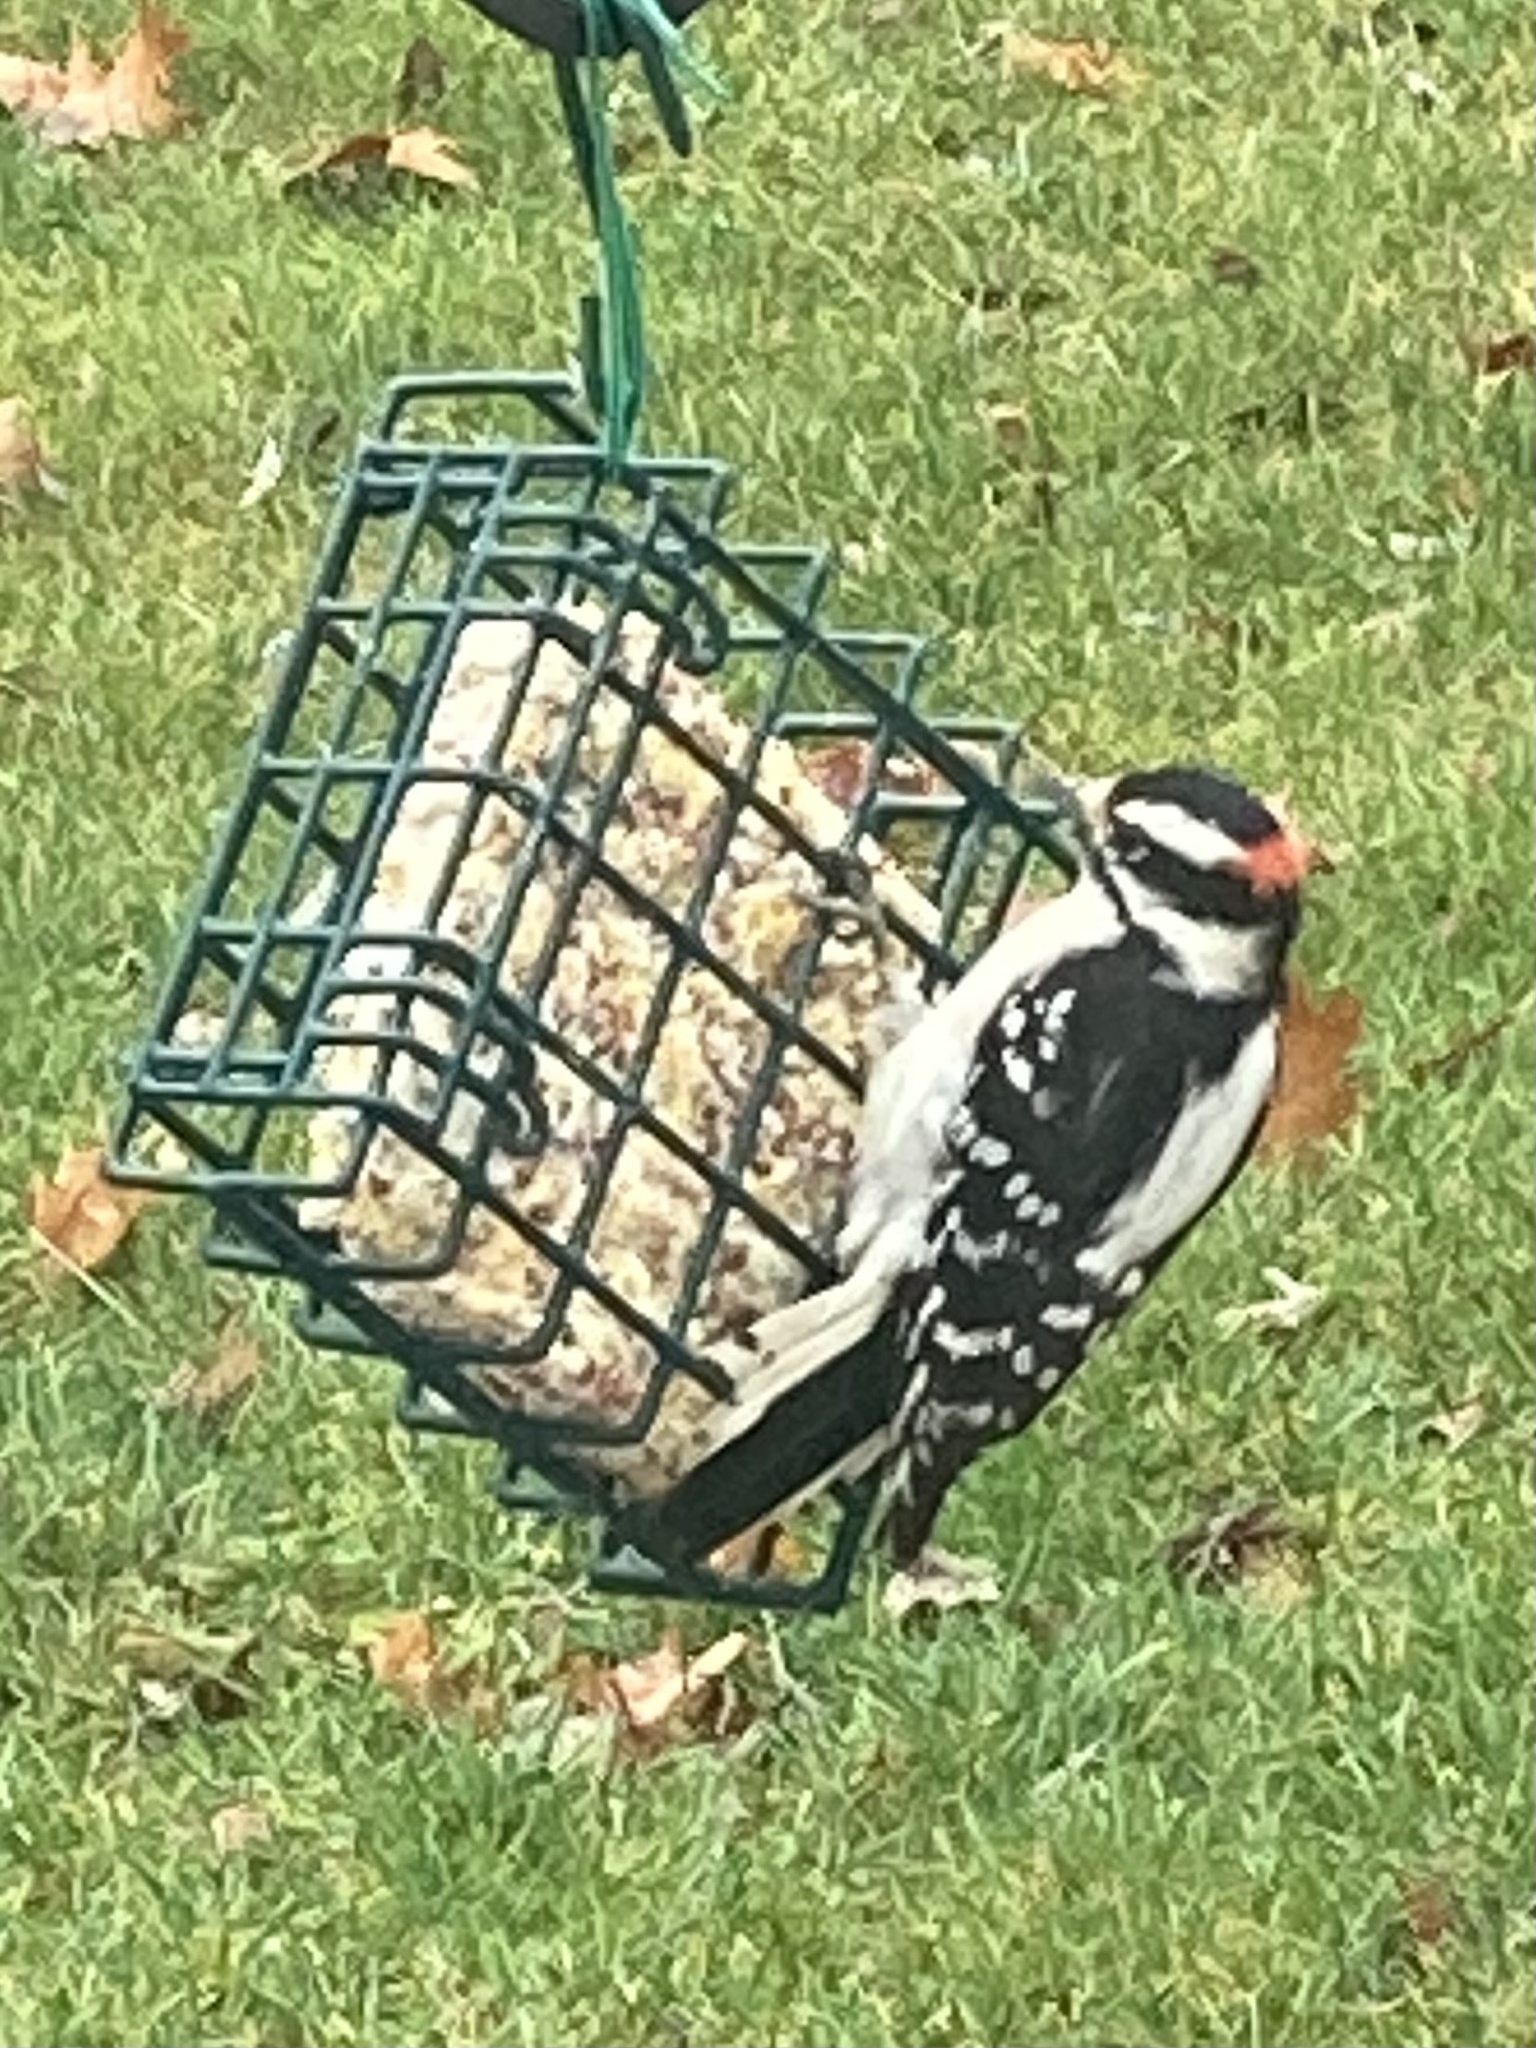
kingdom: Animalia
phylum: Chordata
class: Aves
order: Piciformes
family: Picidae
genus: Dryobates
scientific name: Dryobates pubescens
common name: Downy woodpecker
